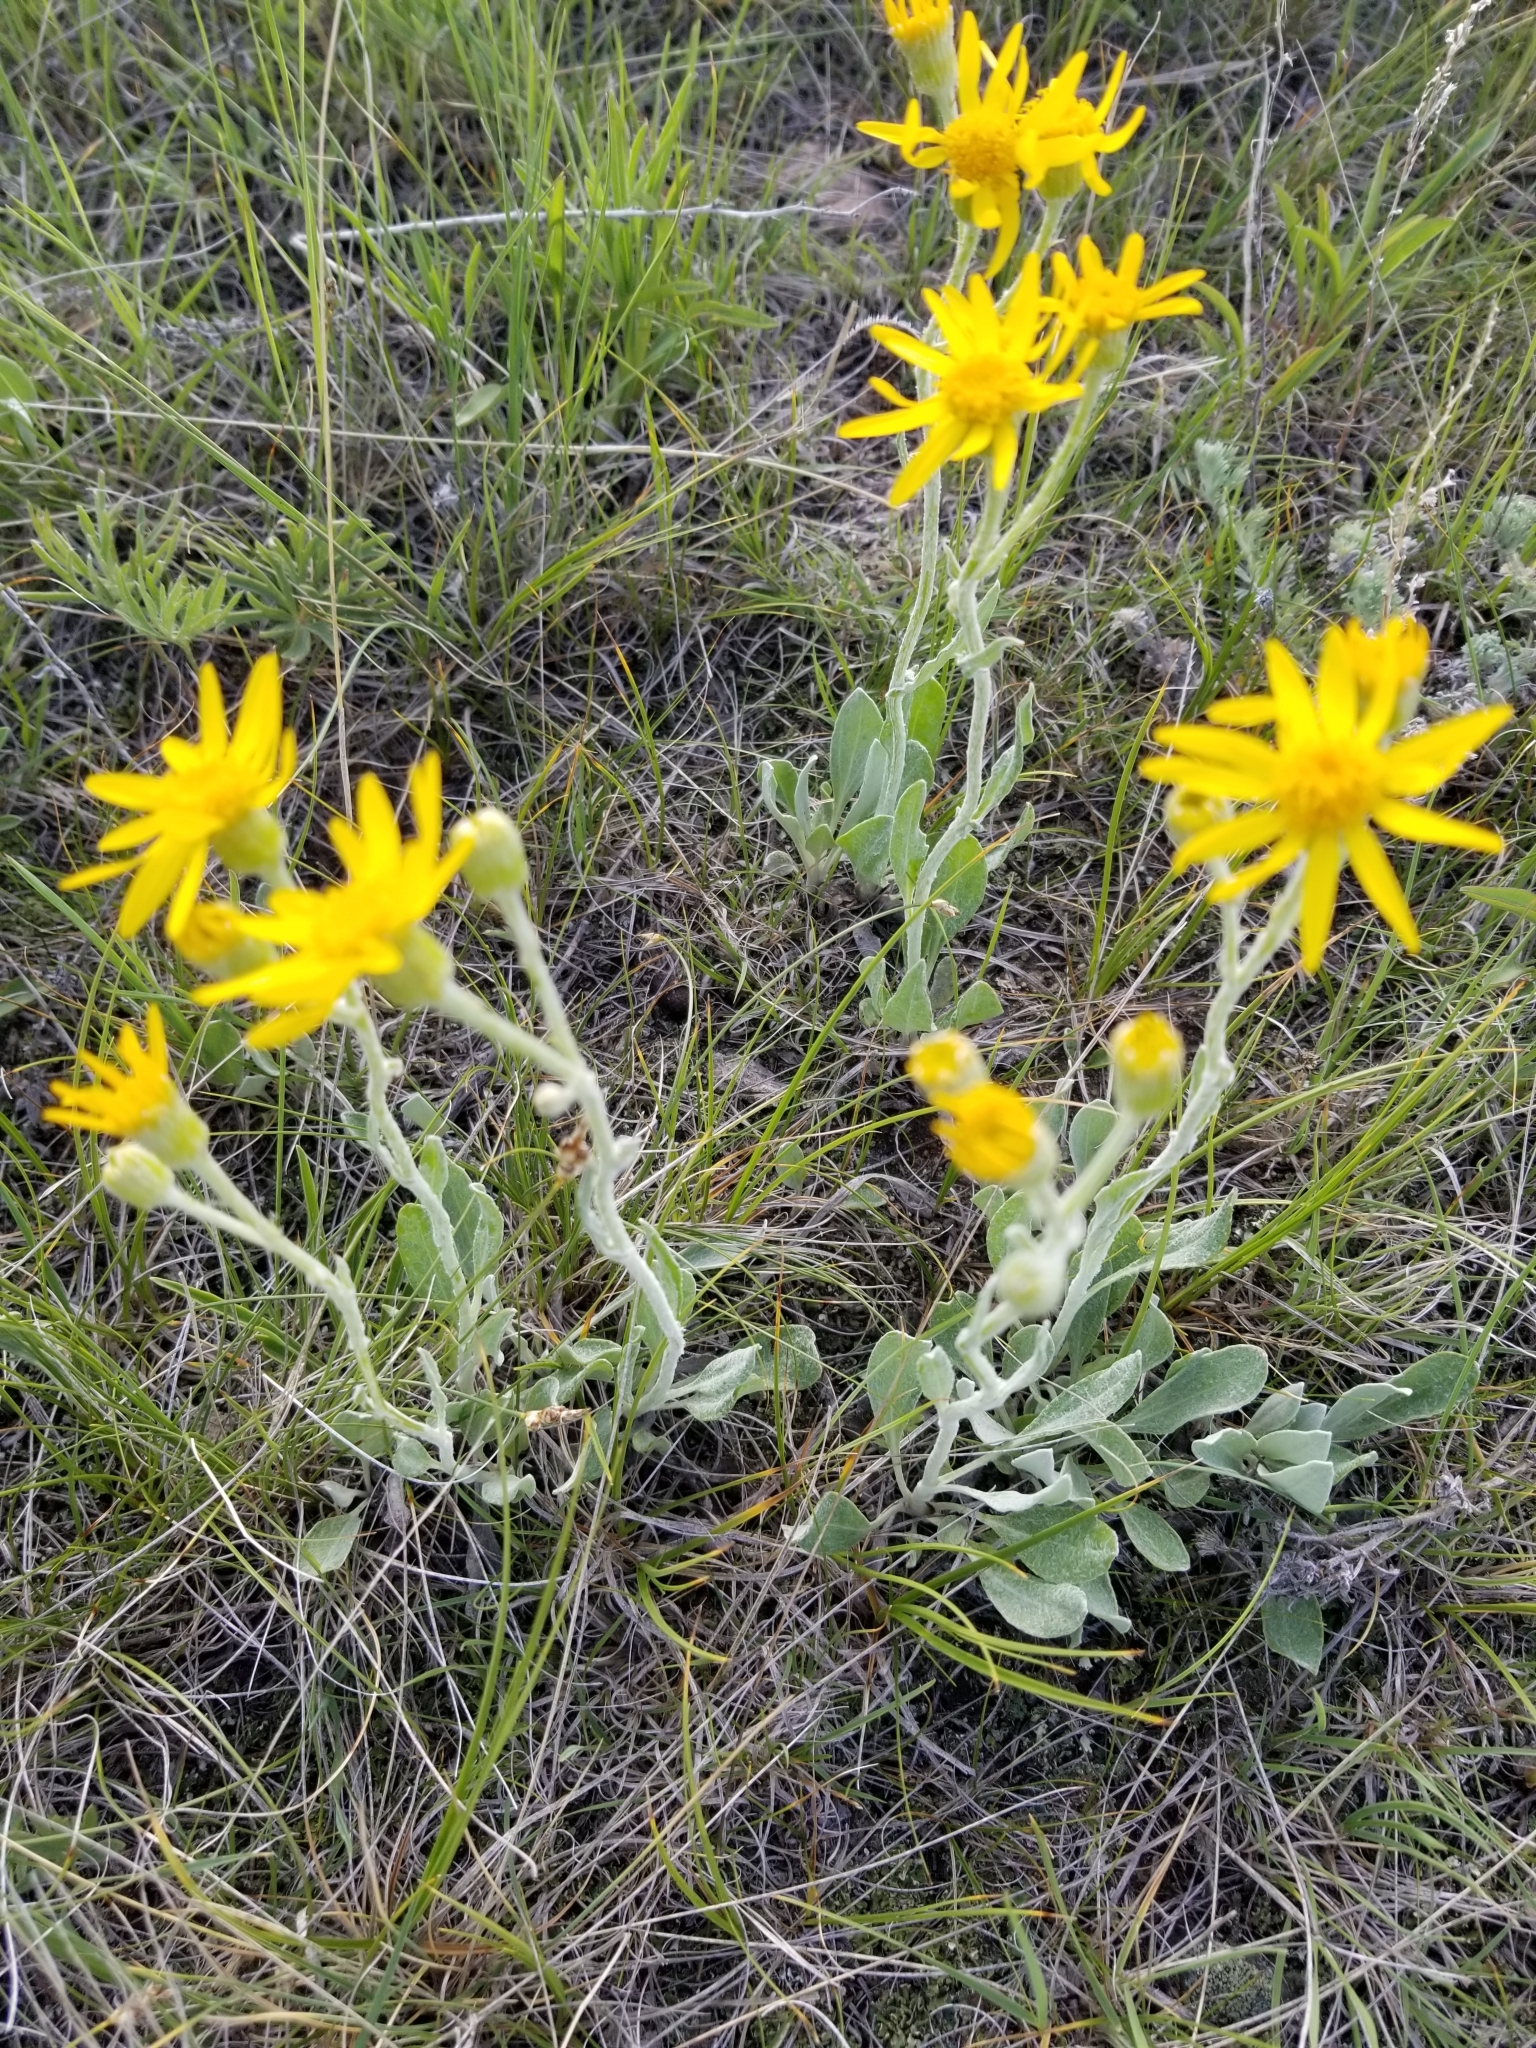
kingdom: Plantae
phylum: Tracheophyta
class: Magnoliopsida
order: Asterales
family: Asteraceae
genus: Packera
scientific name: Packera cana
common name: Woolly groundsel
